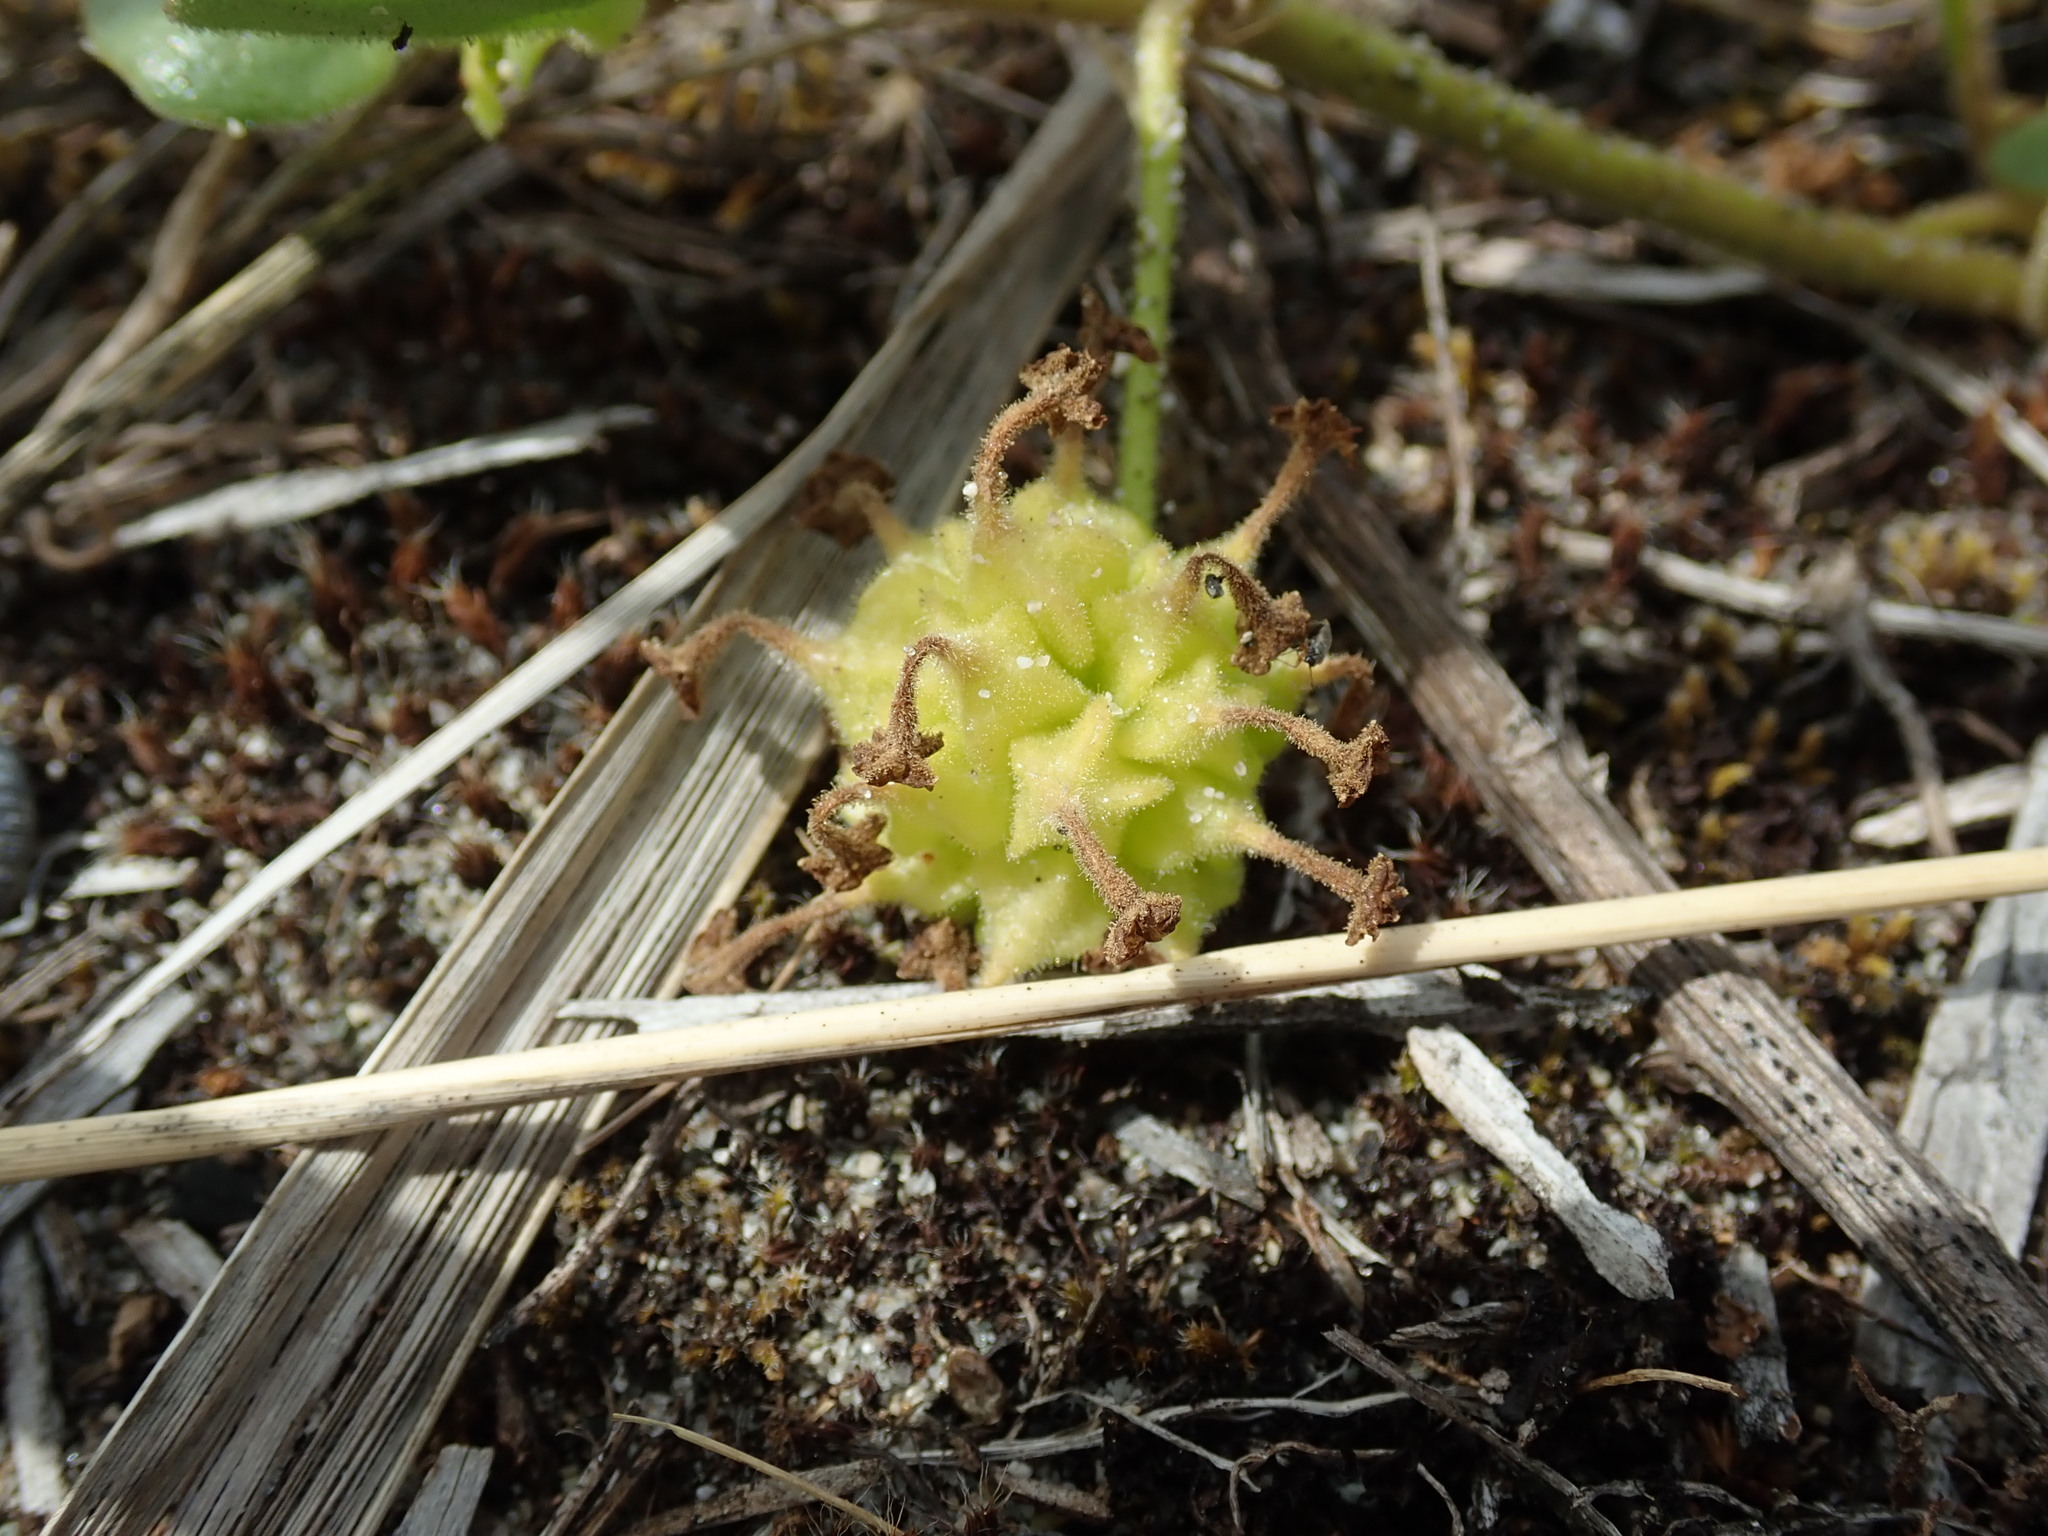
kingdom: Plantae
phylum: Tracheophyta
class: Magnoliopsida
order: Caryophyllales
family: Nyctaginaceae
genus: Abronia
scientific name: Abronia latifolia
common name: Yellow sand-verbena
